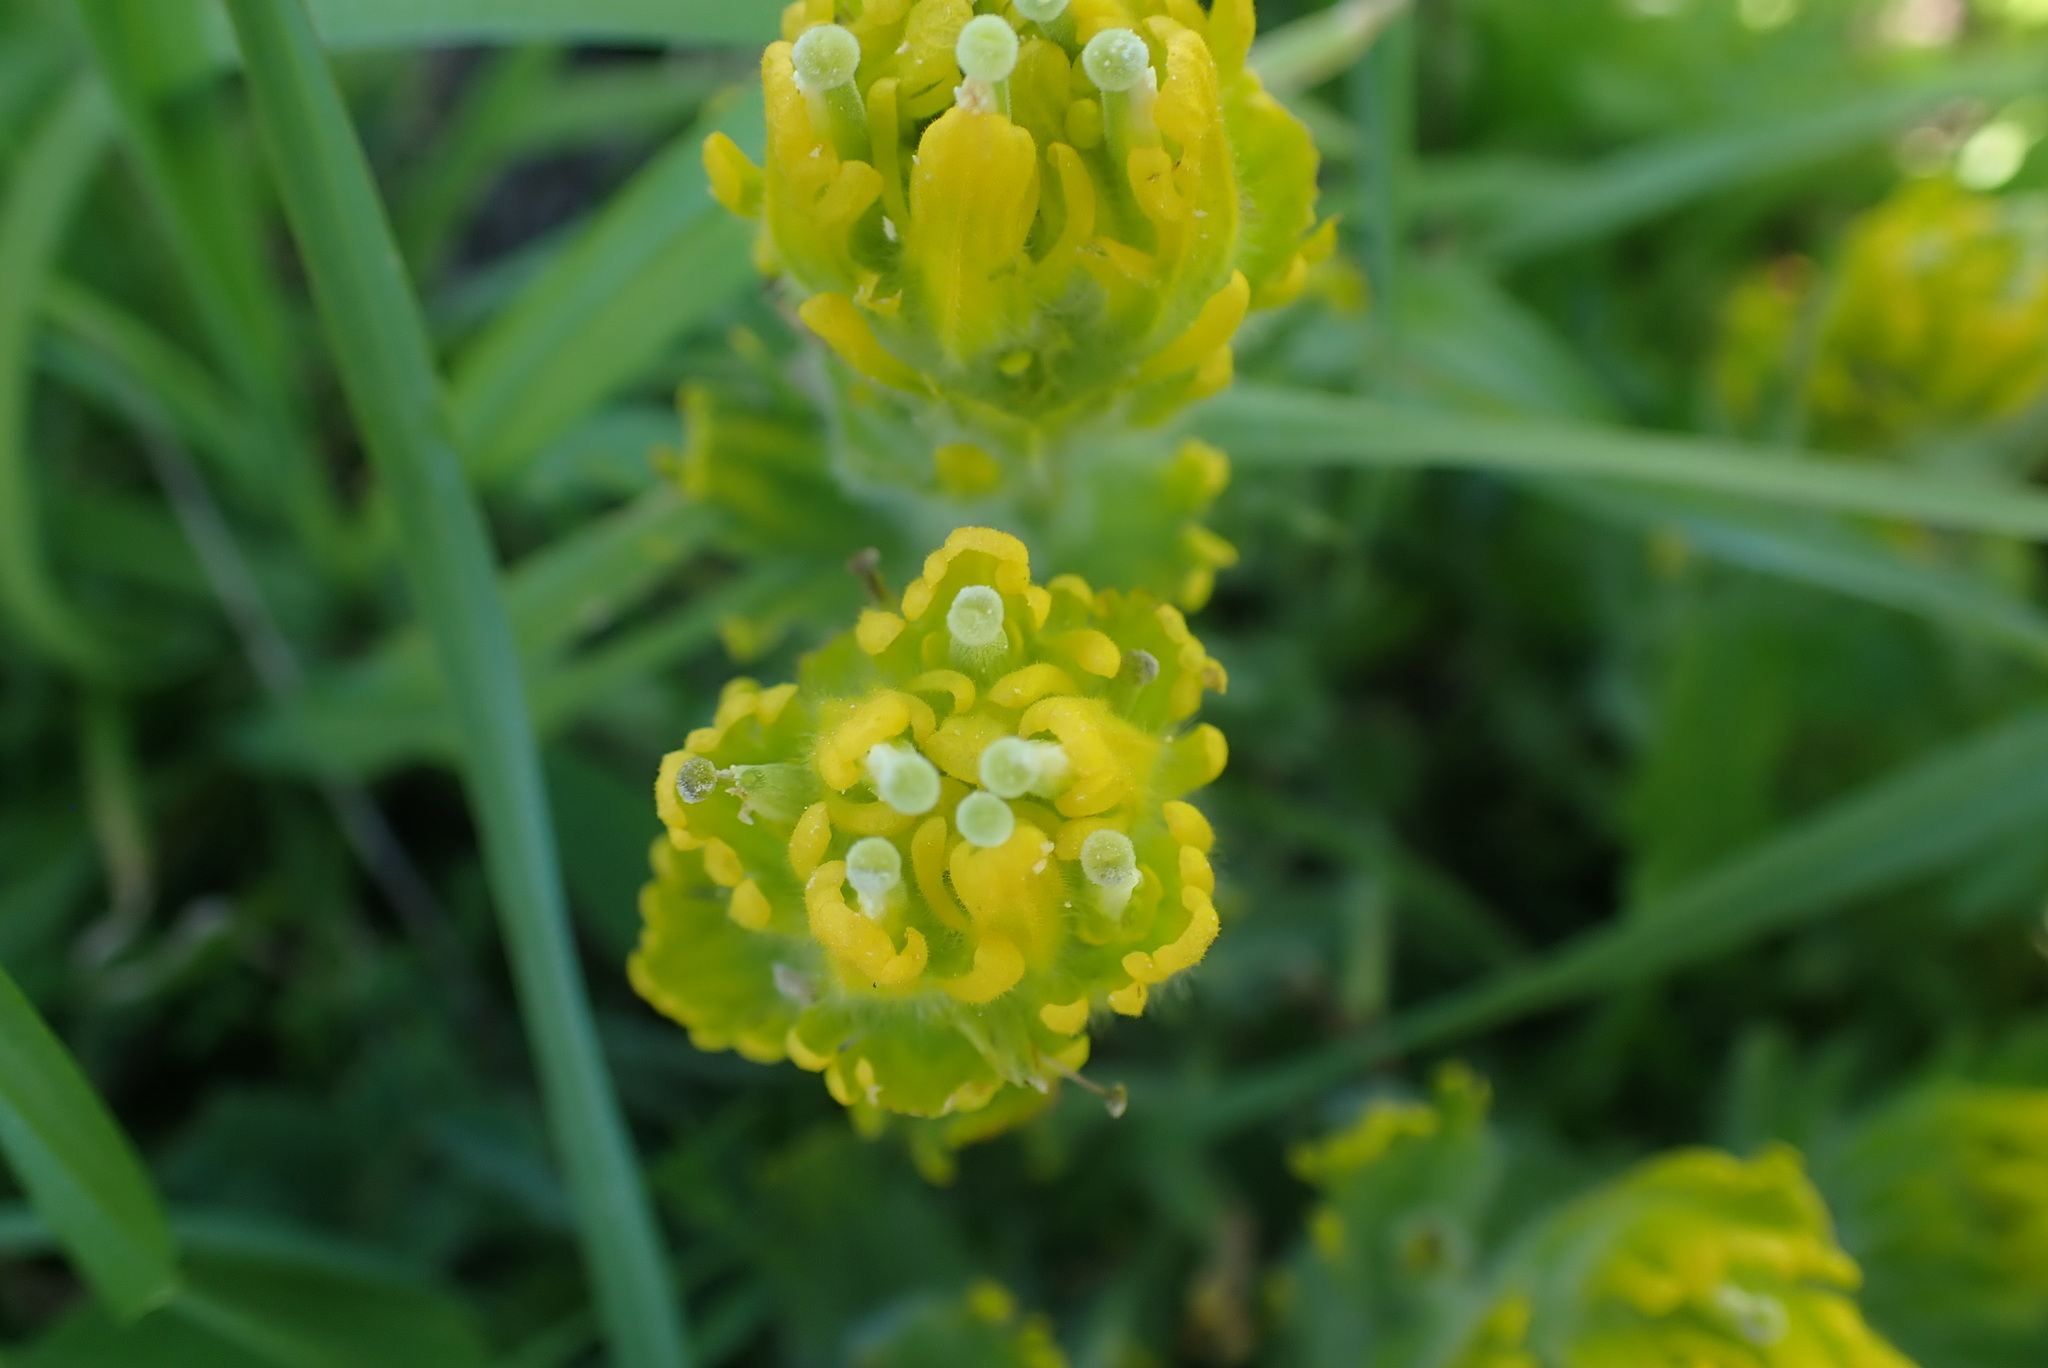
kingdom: Plantae
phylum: Tracheophyta
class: Magnoliopsida
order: Lamiales
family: Orobanchaceae
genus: Castilleja
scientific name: Castilleja levisecta
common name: Golden paintbrush
